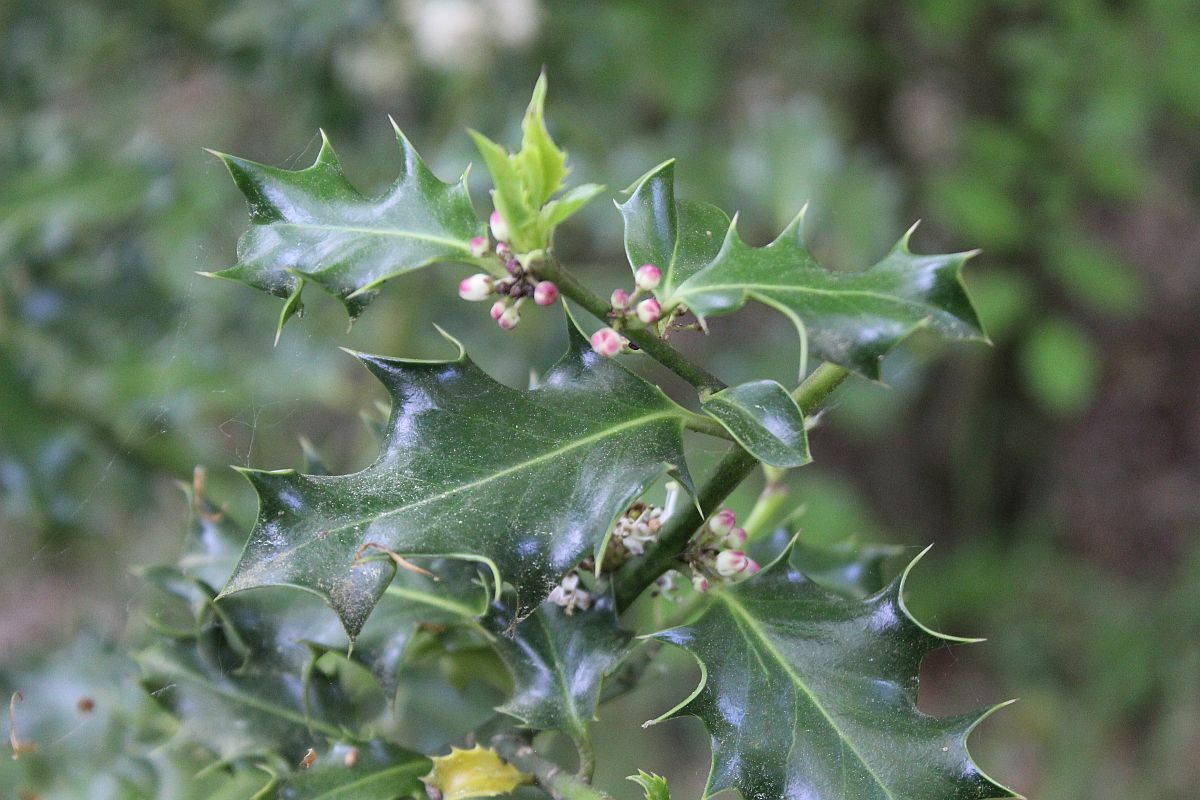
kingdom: Plantae
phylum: Tracheophyta
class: Magnoliopsida
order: Aquifoliales
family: Aquifoliaceae
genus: Ilex
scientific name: Ilex aquifolium
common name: English holly
